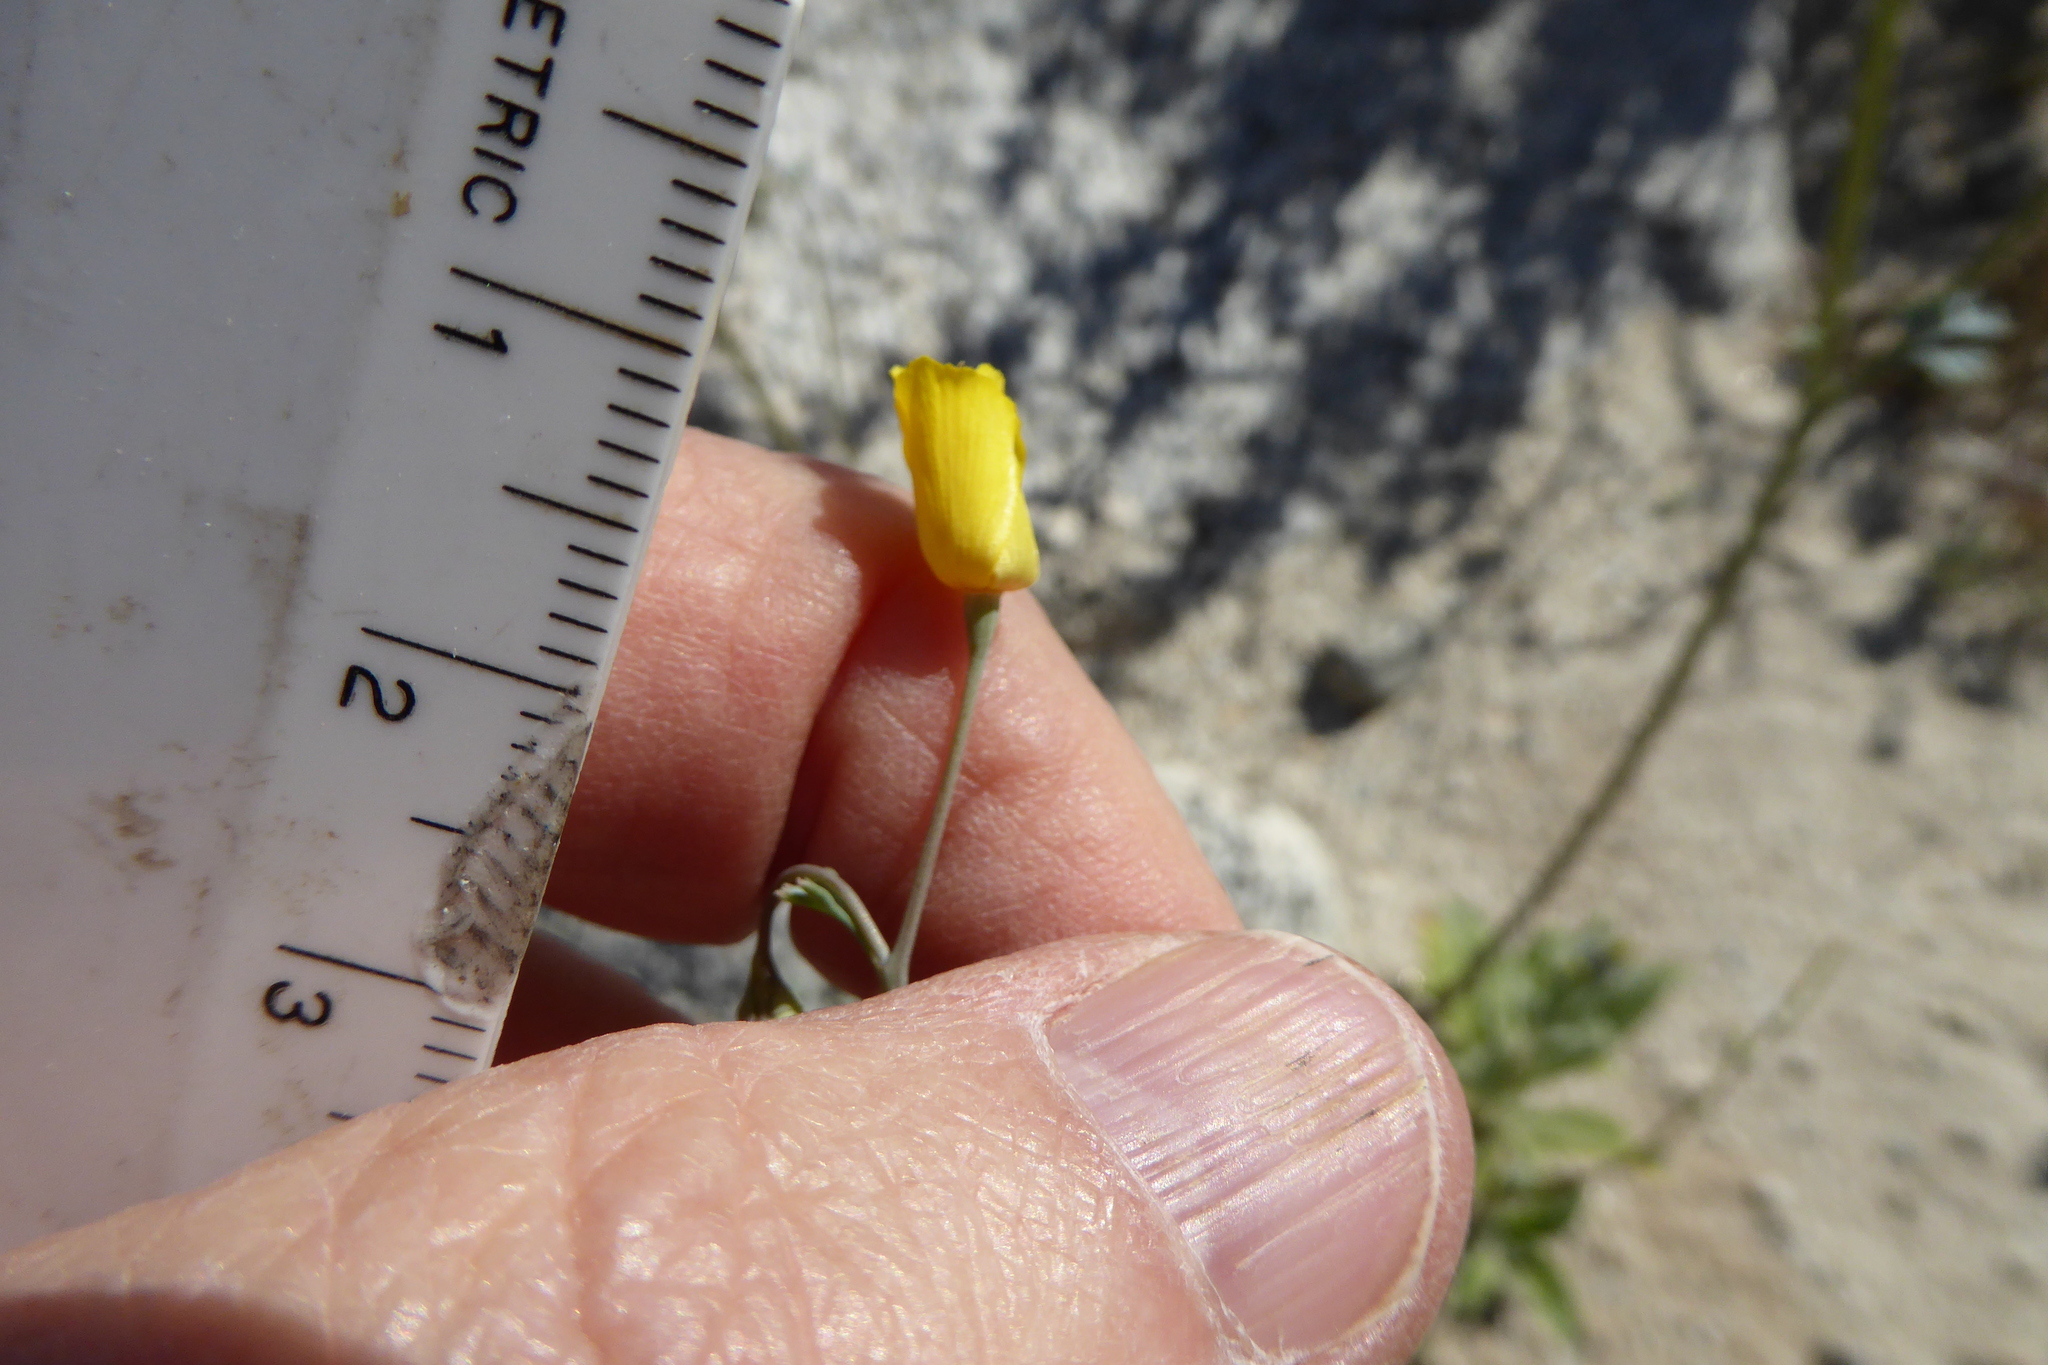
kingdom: Plantae
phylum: Tracheophyta
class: Magnoliopsida
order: Ranunculales
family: Papaveraceae
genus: Eschscholzia
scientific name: Eschscholzia minutiflora
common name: Small-flower california-poppy
